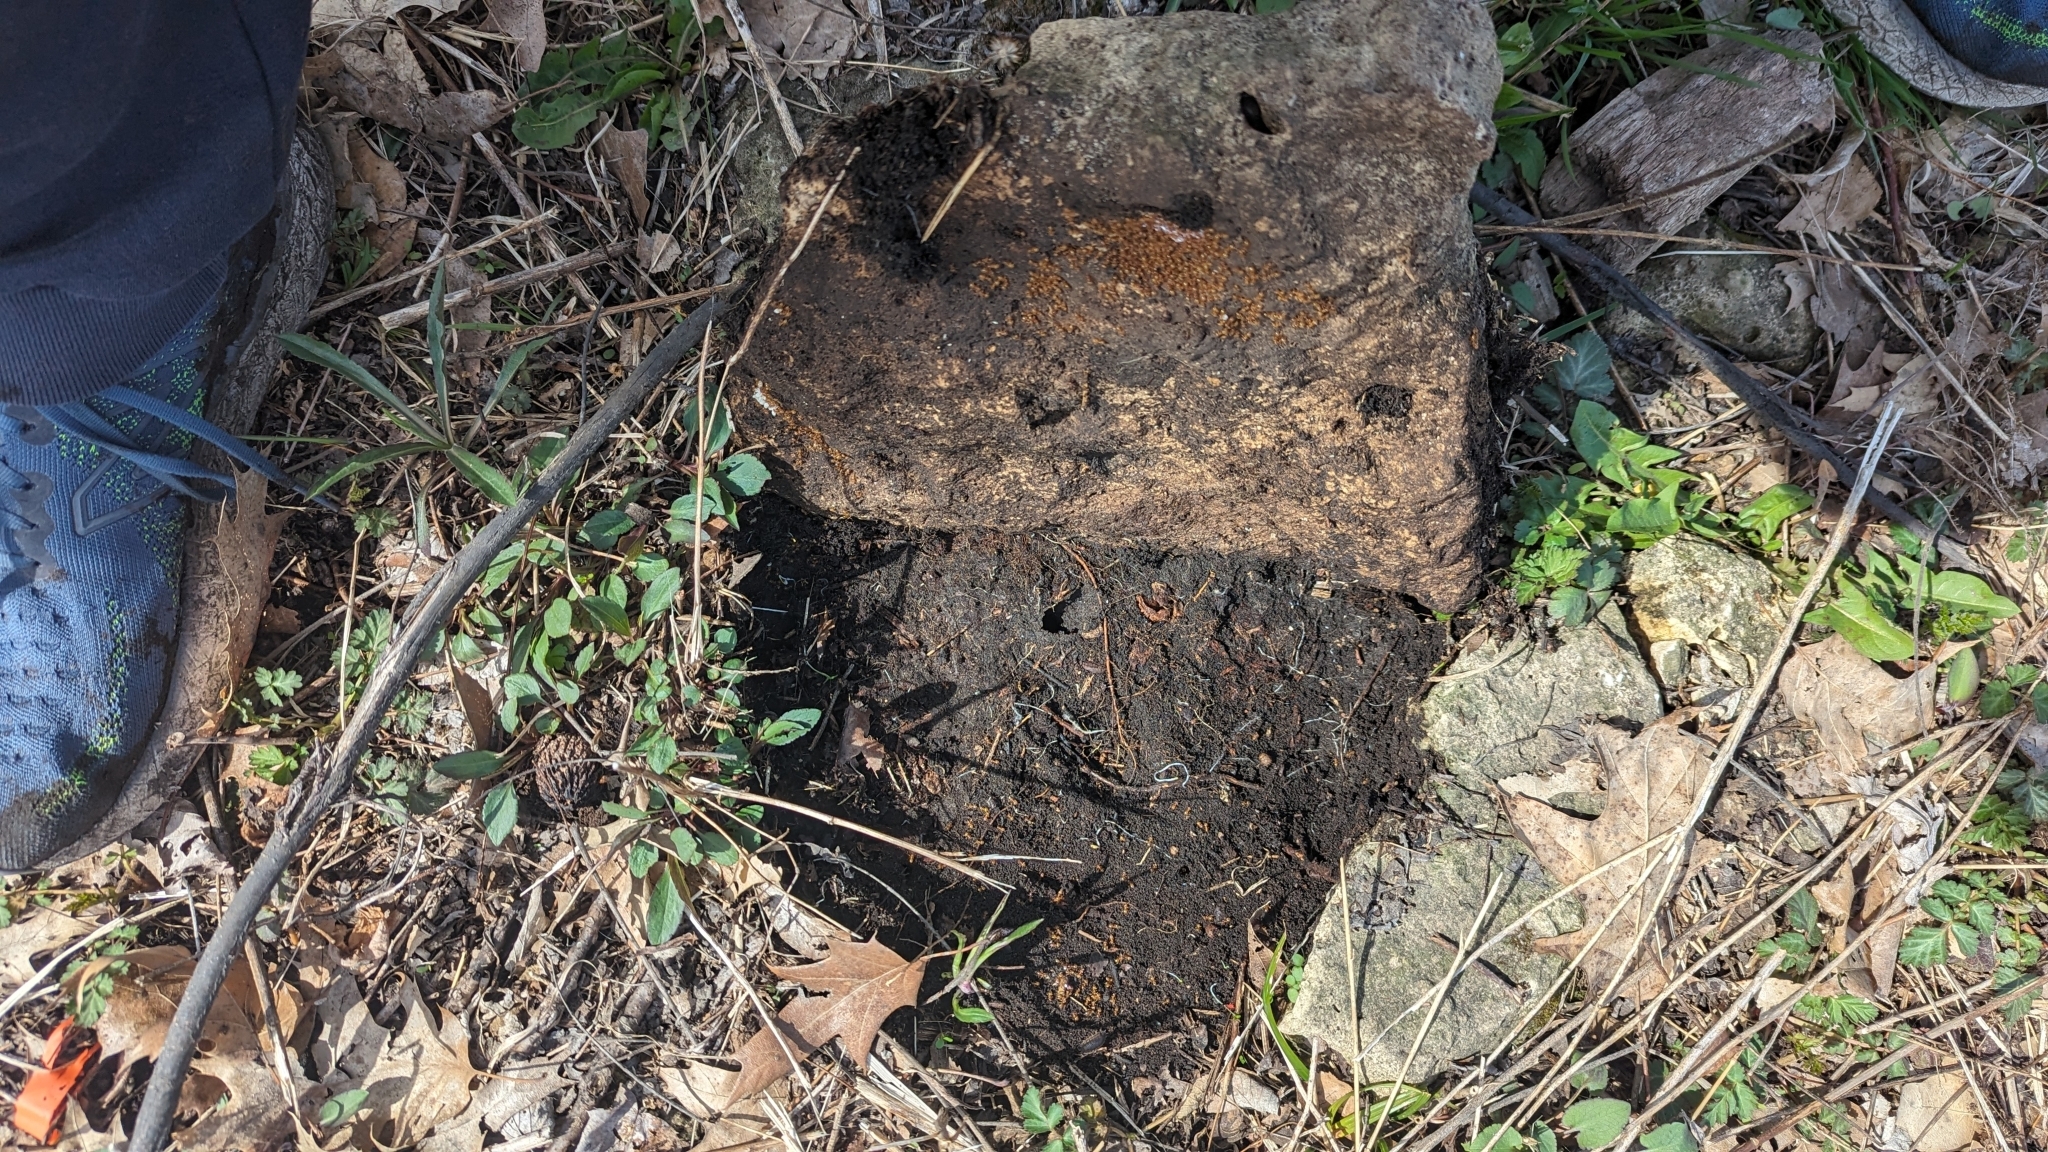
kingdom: Animalia
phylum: Arthropoda
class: Insecta
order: Hymenoptera
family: Formicidae
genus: Lasius
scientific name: Lasius aphidicola
